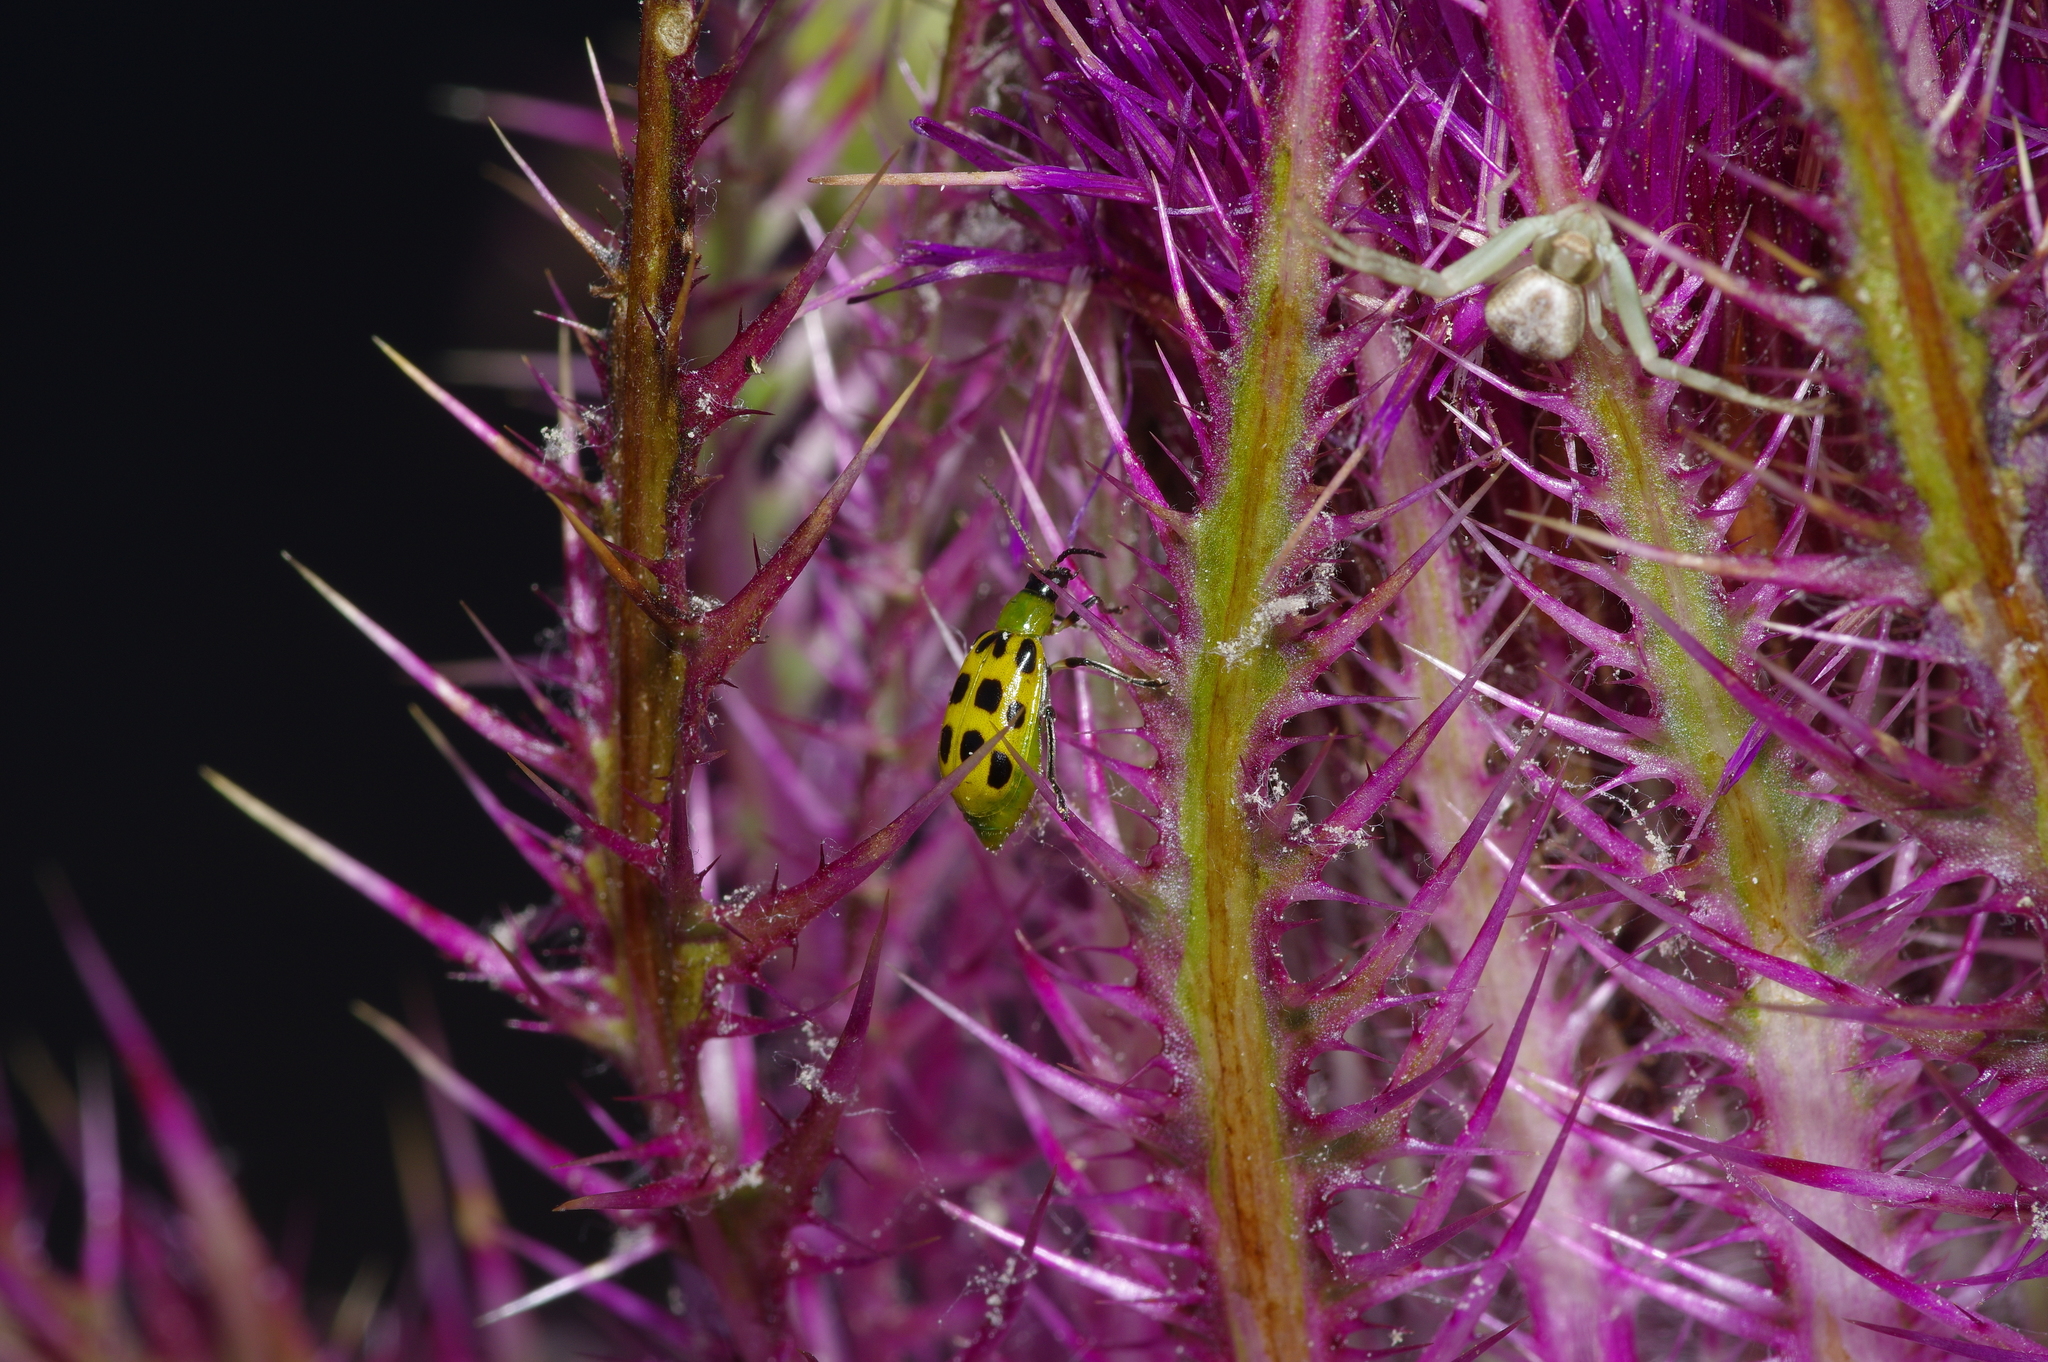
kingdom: Animalia
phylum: Arthropoda
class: Insecta
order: Coleoptera
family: Chrysomelidae
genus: Diabrotica
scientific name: Diabrotica undecimpunctata
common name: Spotted cucumber beetle
